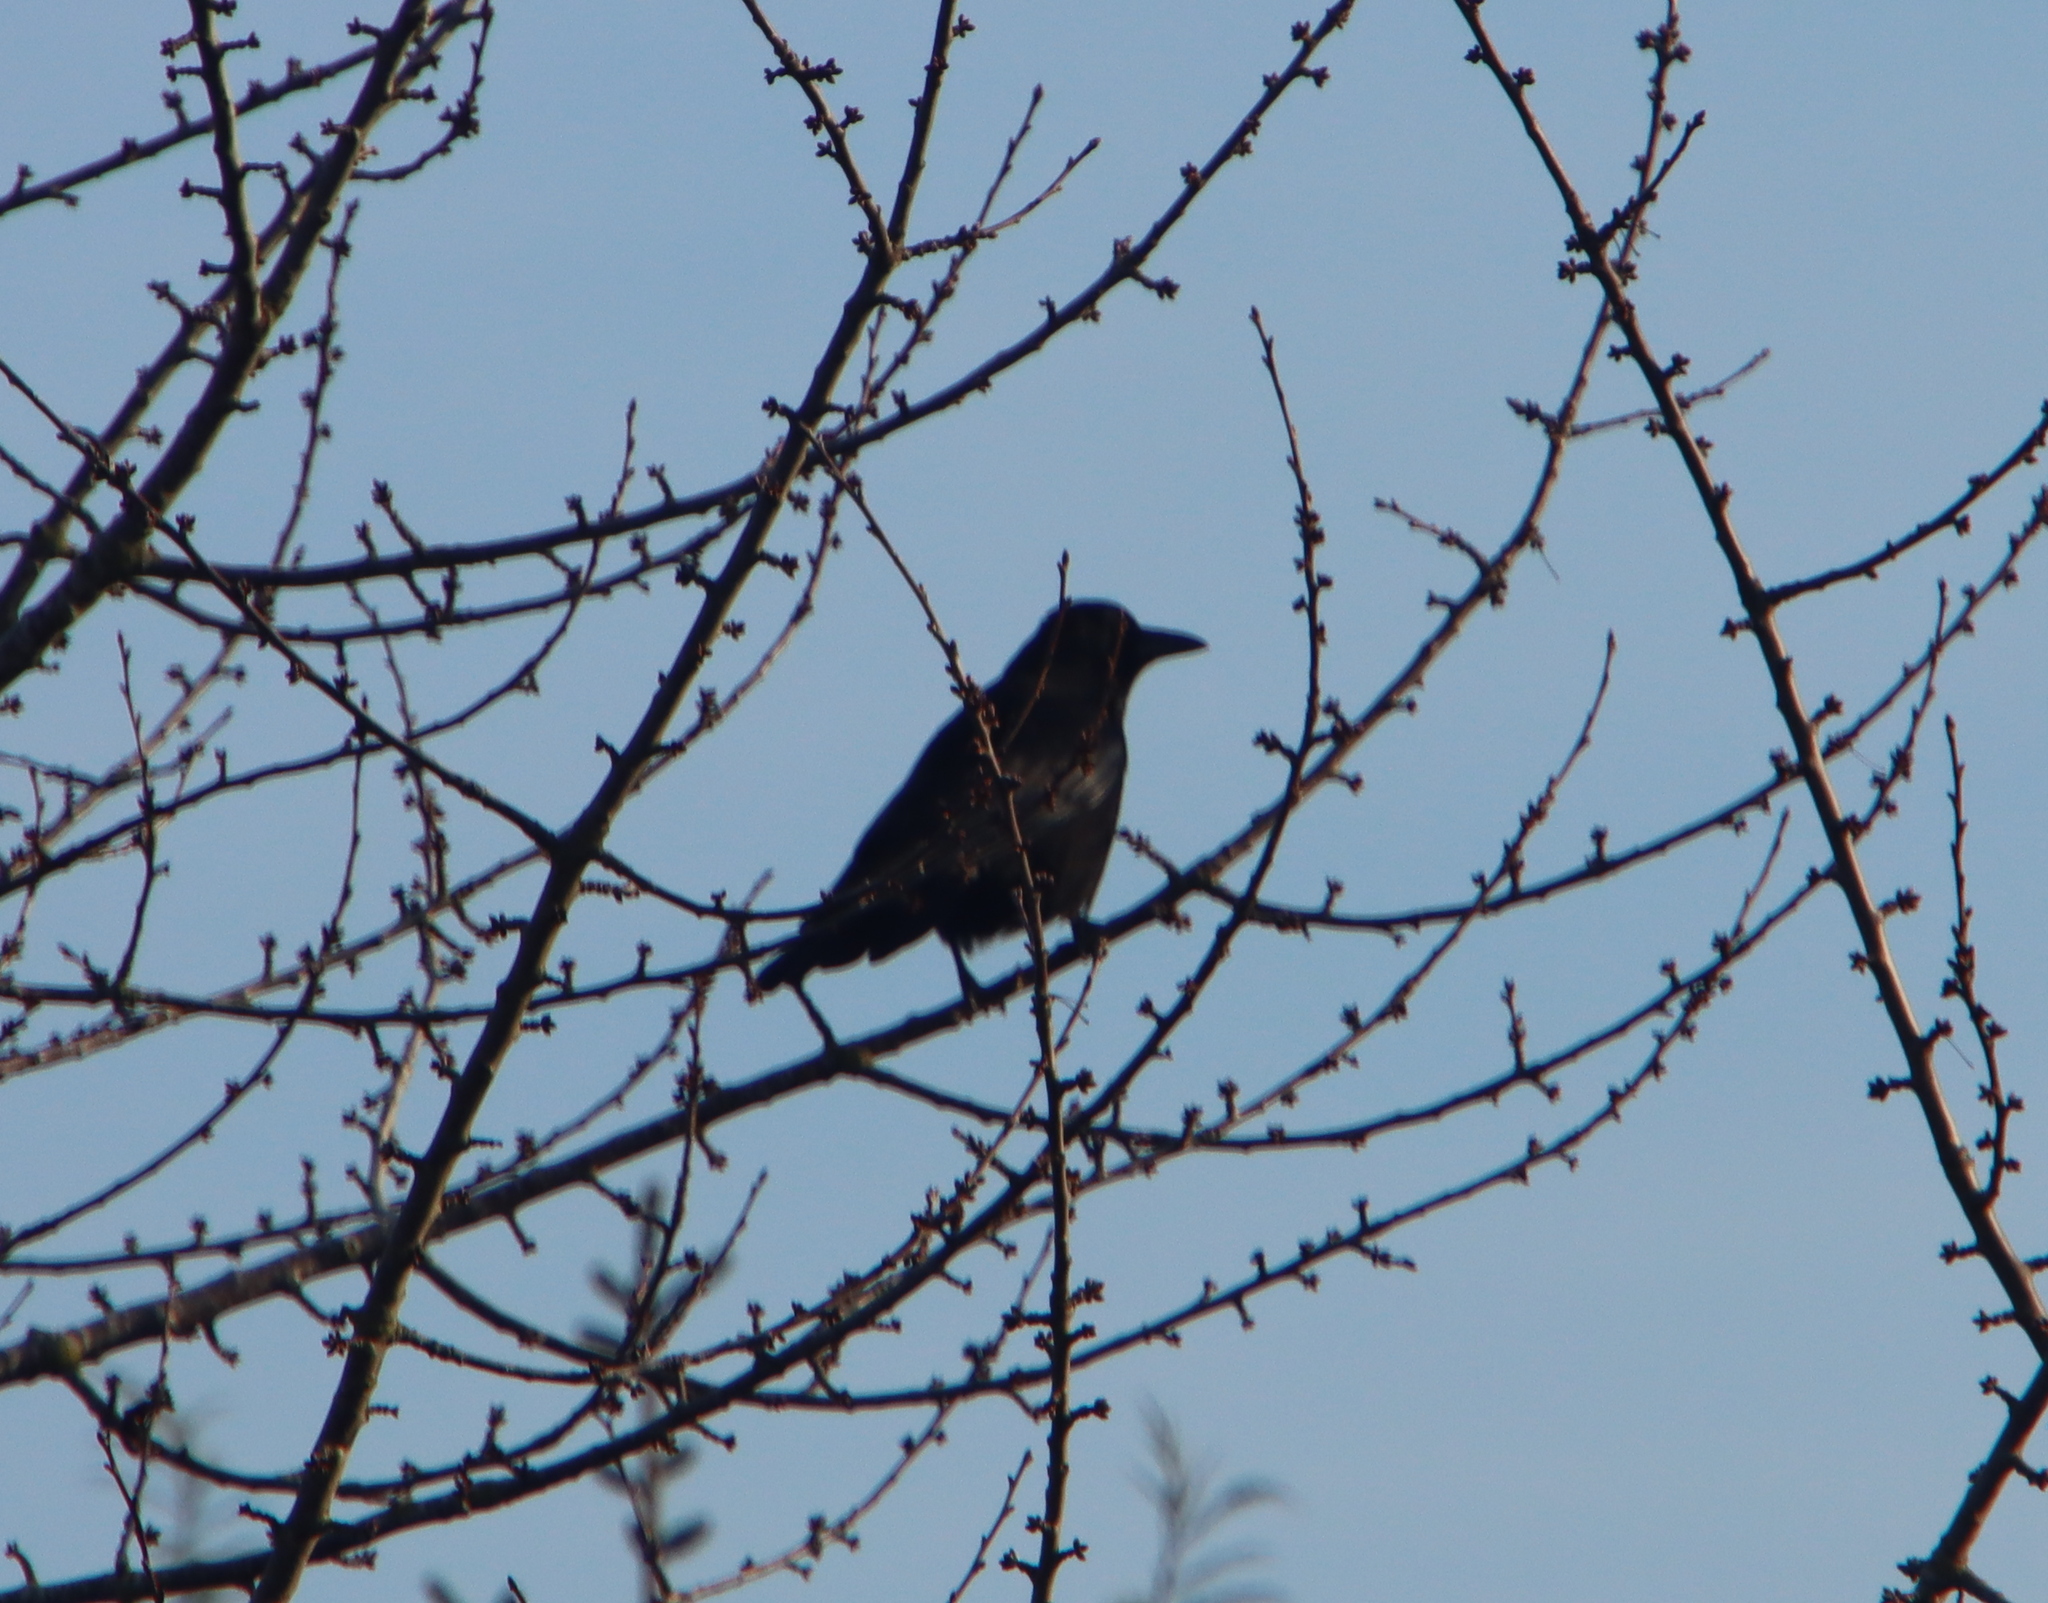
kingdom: Animalia
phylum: Chordata
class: Aves
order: Passeriformes
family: Corvidae
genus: Corvus
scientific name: Corvus corone
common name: Carrion crow
